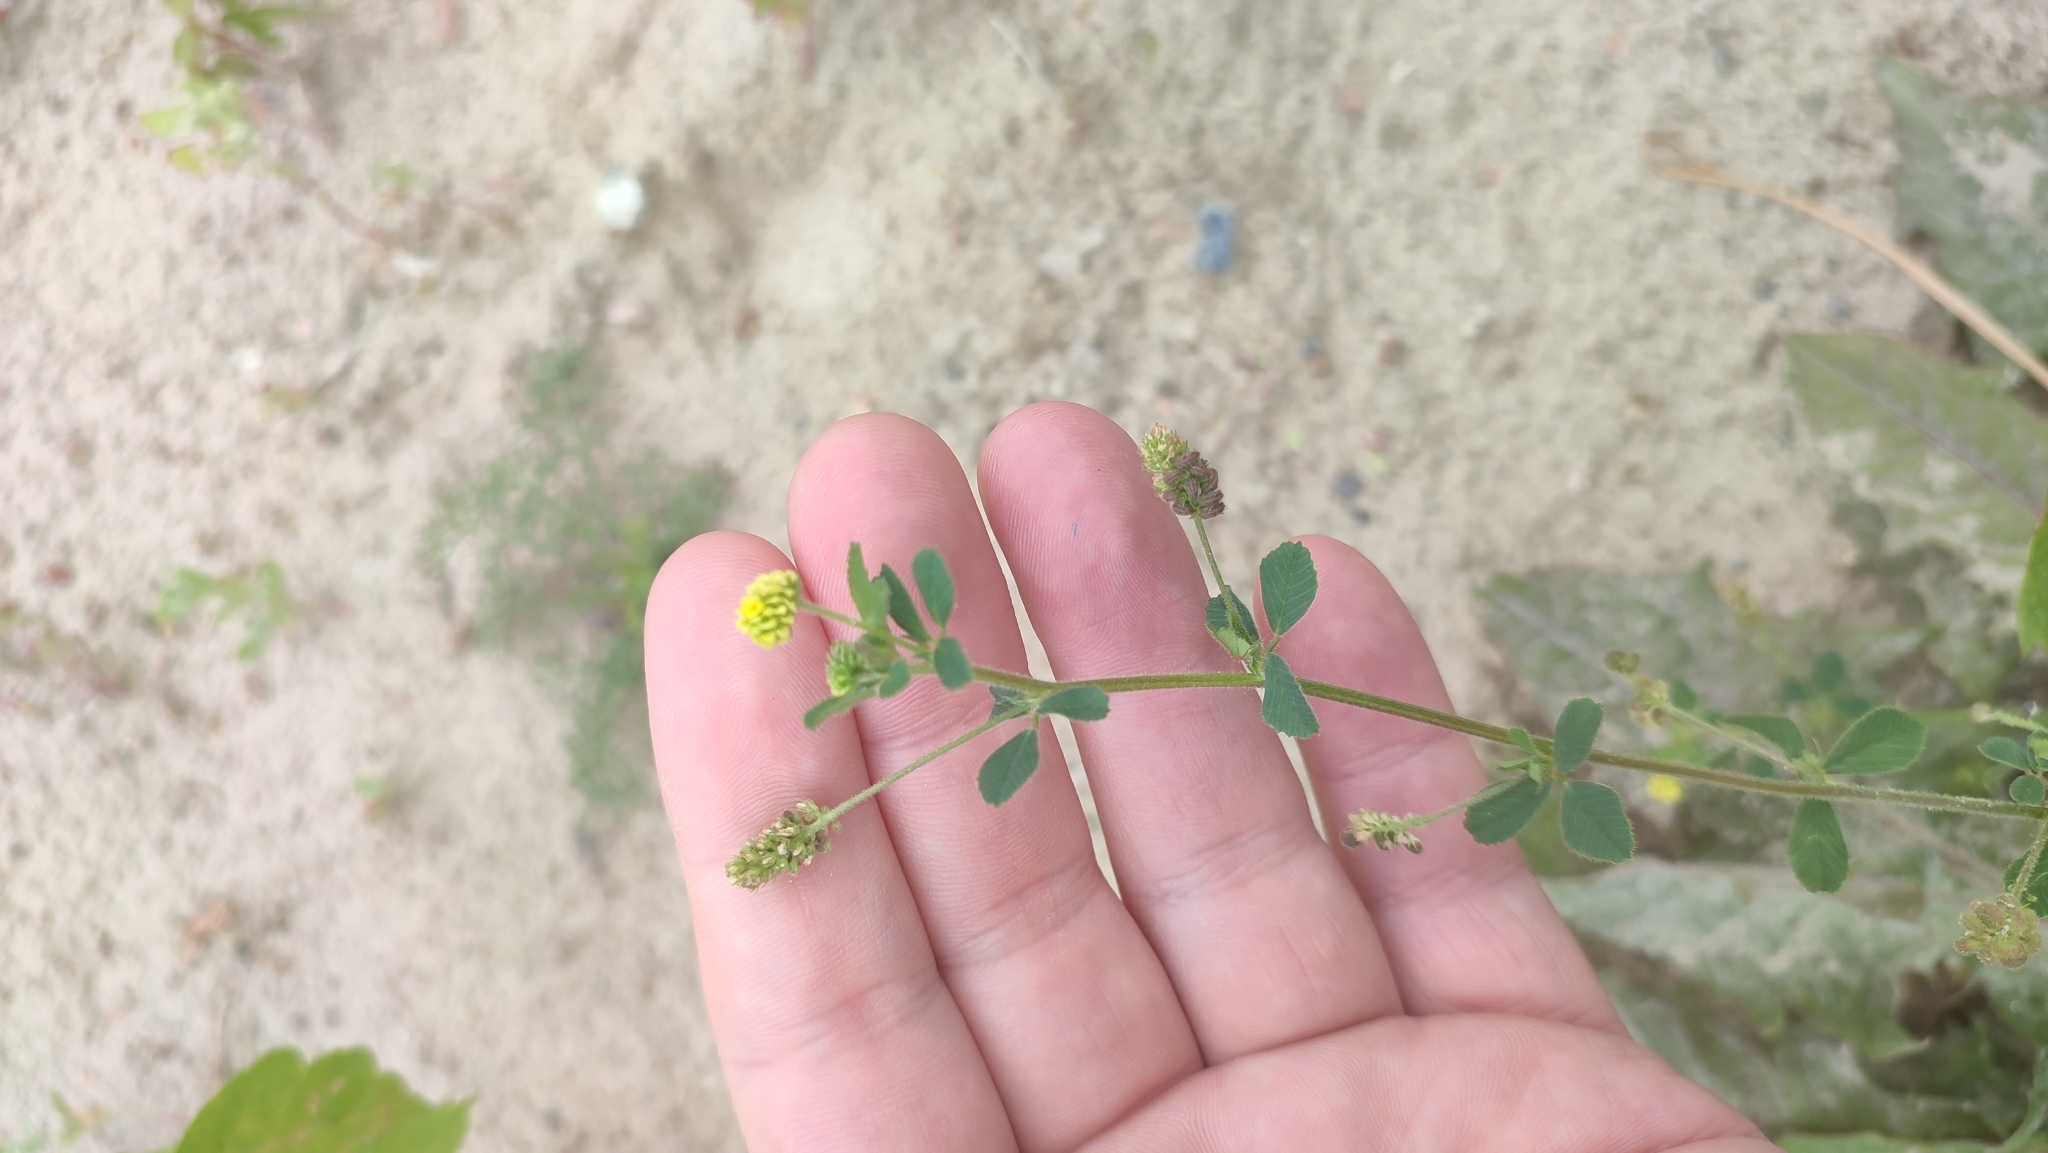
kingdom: Plantae
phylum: Tracheophyta
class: Magnoliopsida
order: Fabales
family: Fabaceae
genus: Medicago
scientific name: Medicago lupulina
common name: Black medick
